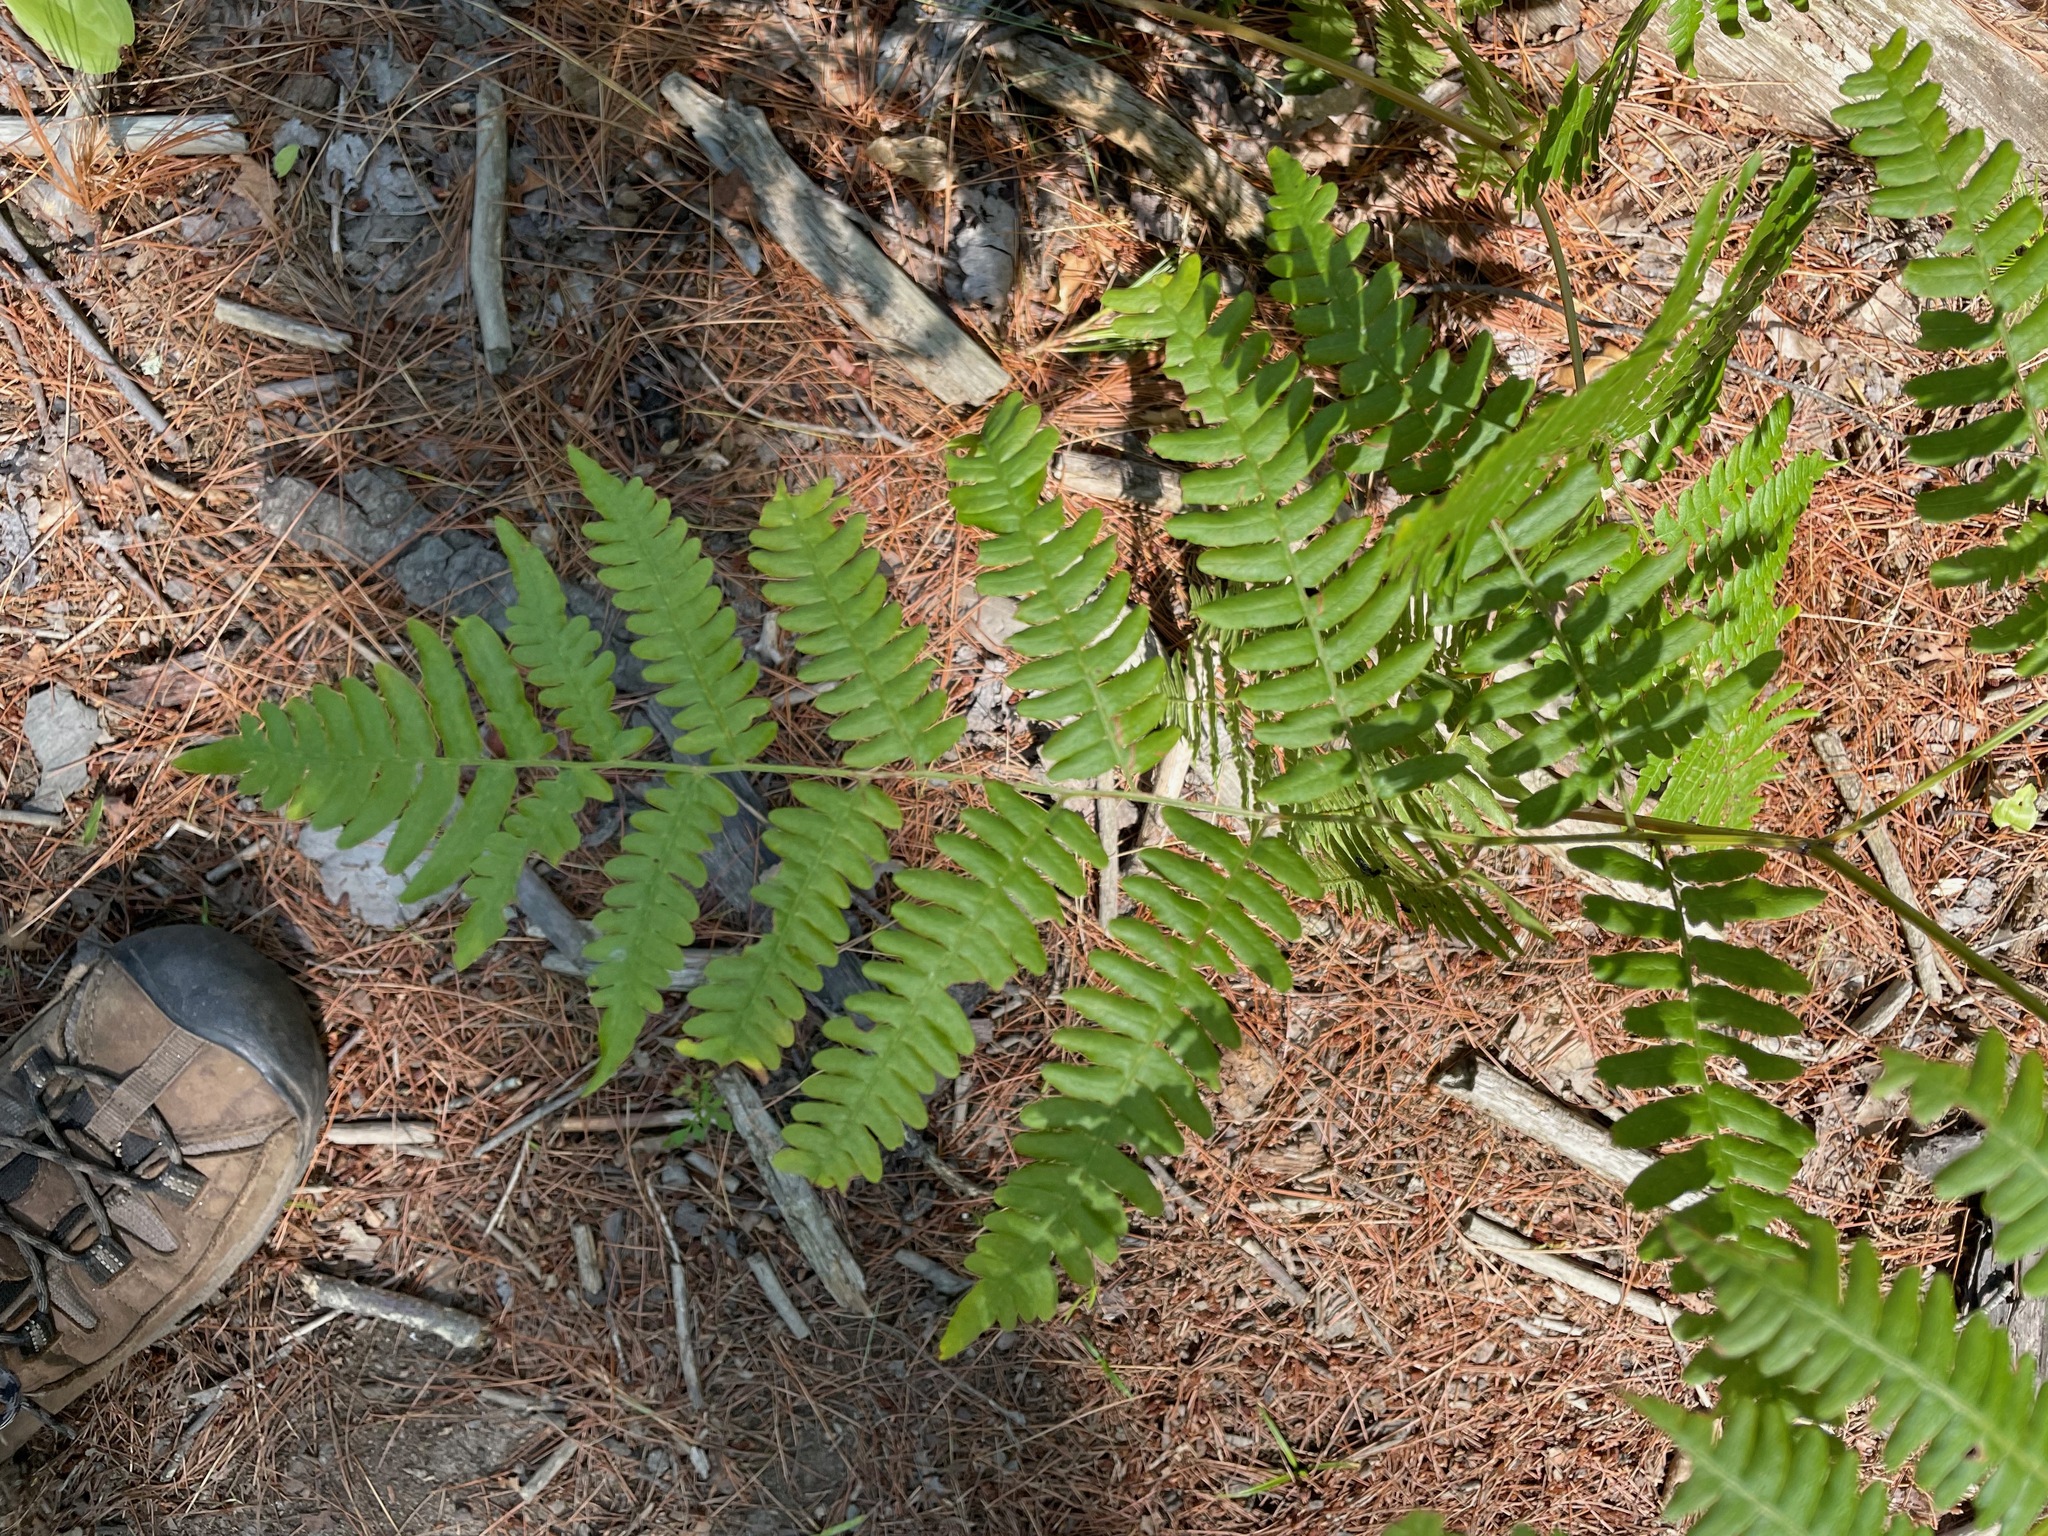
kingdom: Plantae
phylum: Tracheophyta
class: Polypodiopsida
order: Polypodiales
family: Dennstaedtiaceae
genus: Pteridium
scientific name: Pteridium aquilinum
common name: Bracken
